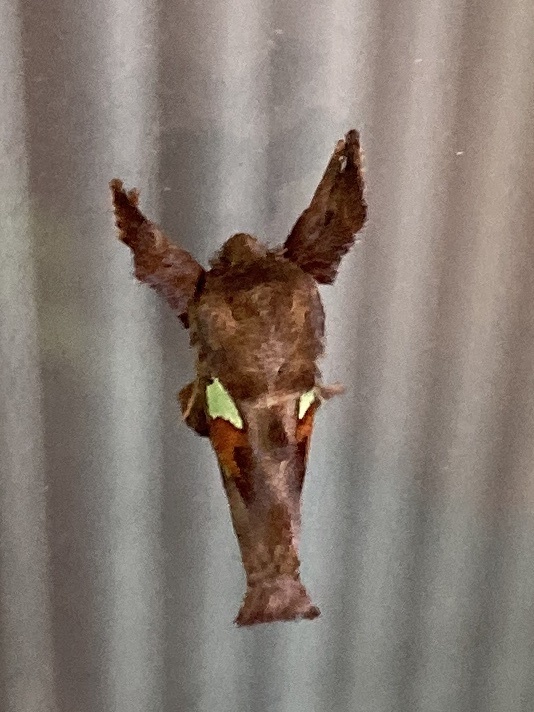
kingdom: Animalia
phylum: Arthropoda
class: Insecta
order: Lepidoptera
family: Limacodidae
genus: Euclea
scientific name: Euclea delphinii
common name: Spiny oak-slug moth
